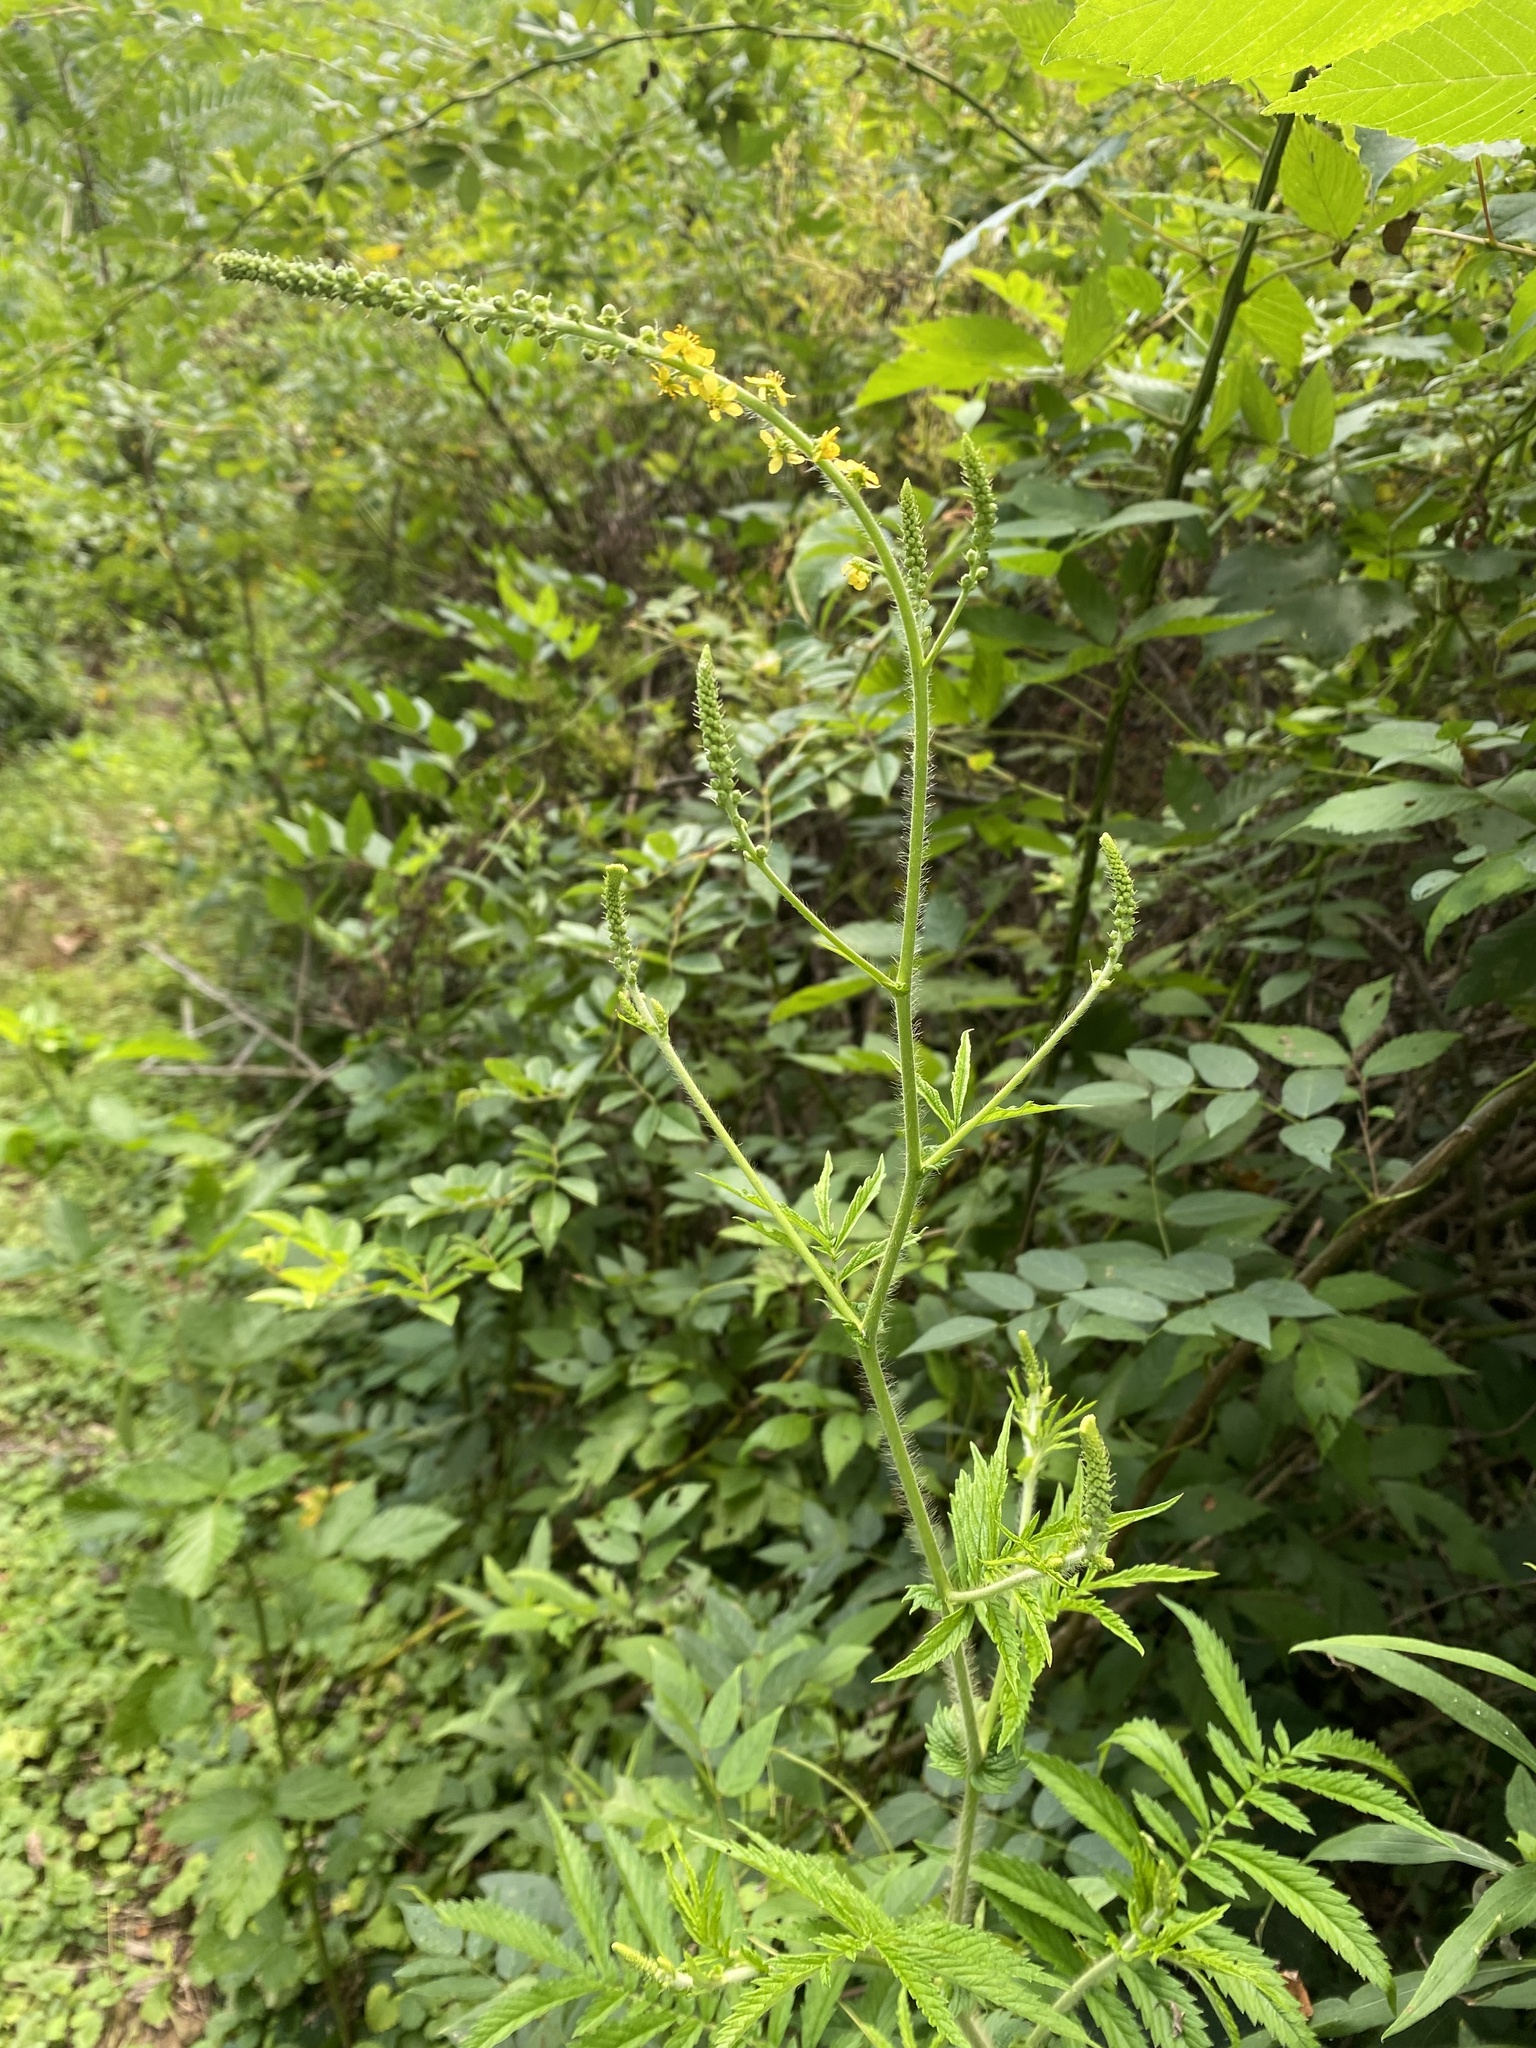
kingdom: Plantae
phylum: Tracheophyta
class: Magnoliopsida
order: Rosales
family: Rosaceae
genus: Agrimonia
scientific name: Agrimonia parviflora
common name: Harvest-lice
